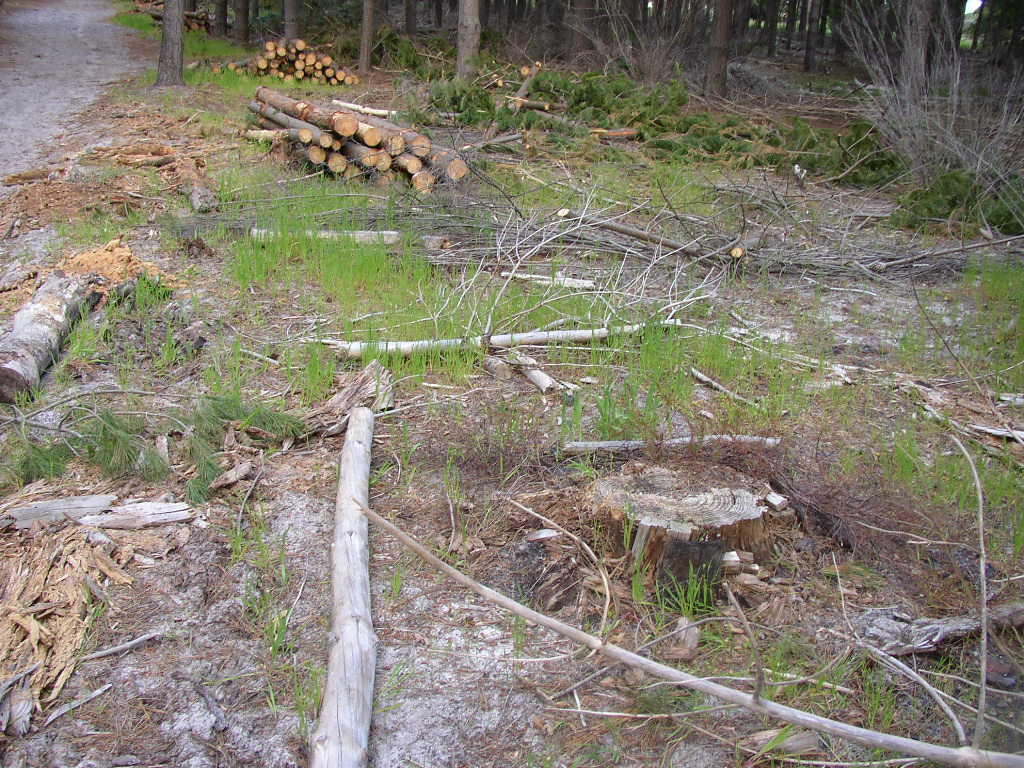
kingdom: Plantae
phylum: Tracheophyta
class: Magnoliopsida
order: Proteales
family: Proteaceae
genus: Diastella
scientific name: Diastella proteoides
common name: Flats silkypuff
